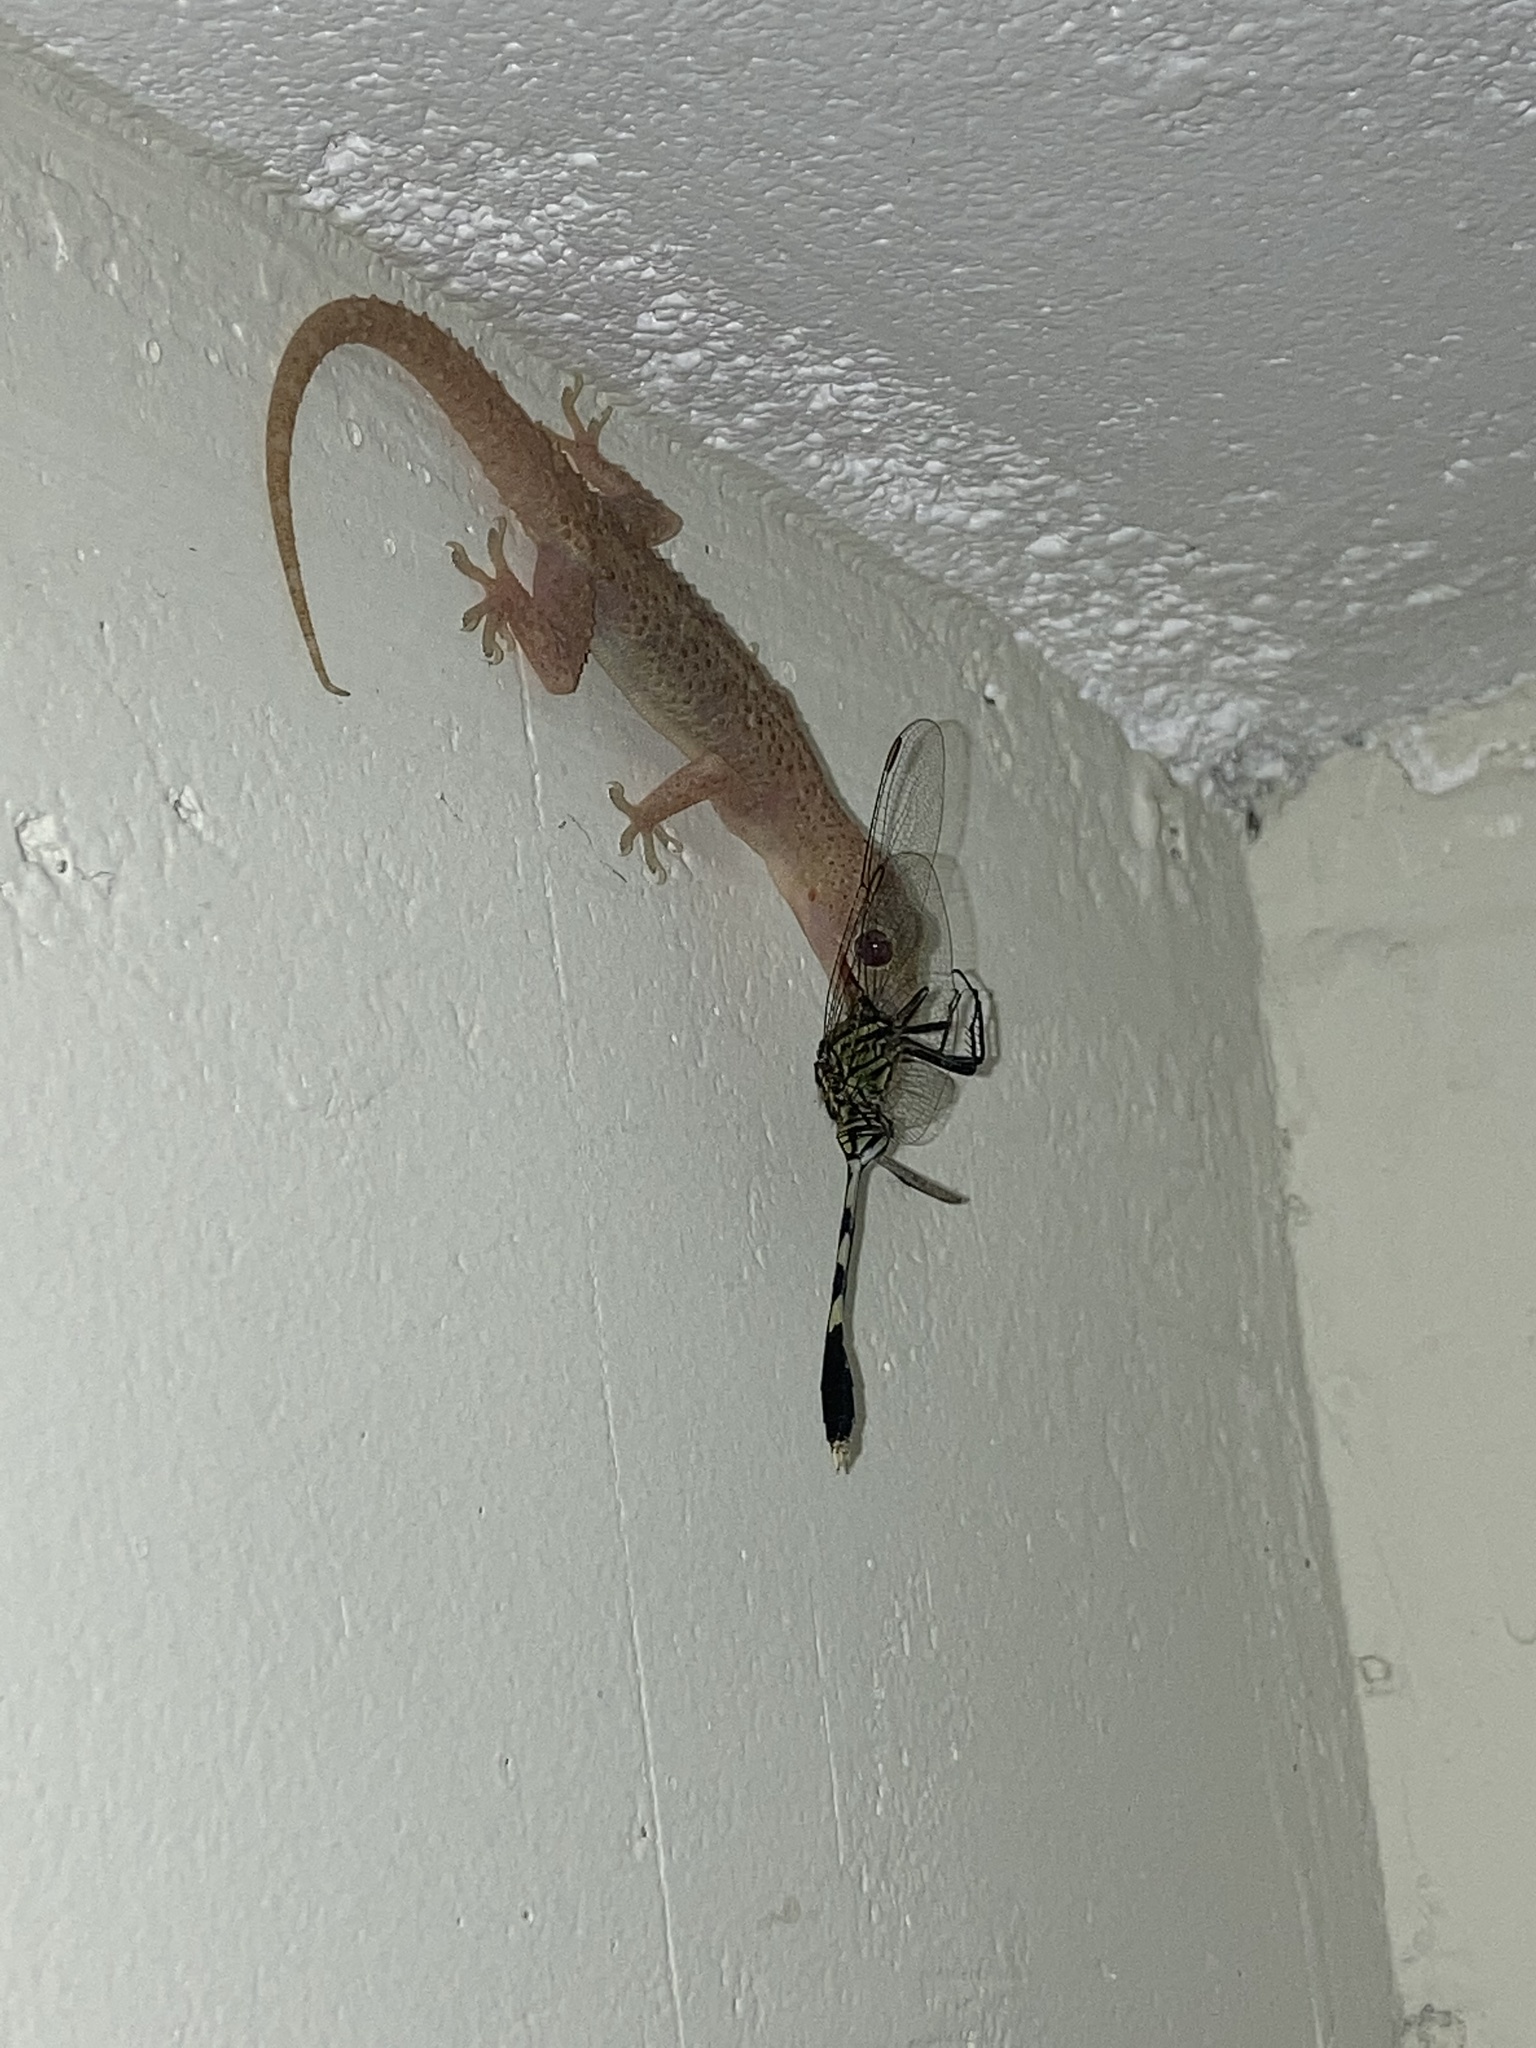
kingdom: Animalia
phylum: Arthropoda
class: Insecta
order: Odonata
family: Libellulidae
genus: Orthetrum
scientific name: Orthetrum sabina
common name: Slender skimmer
